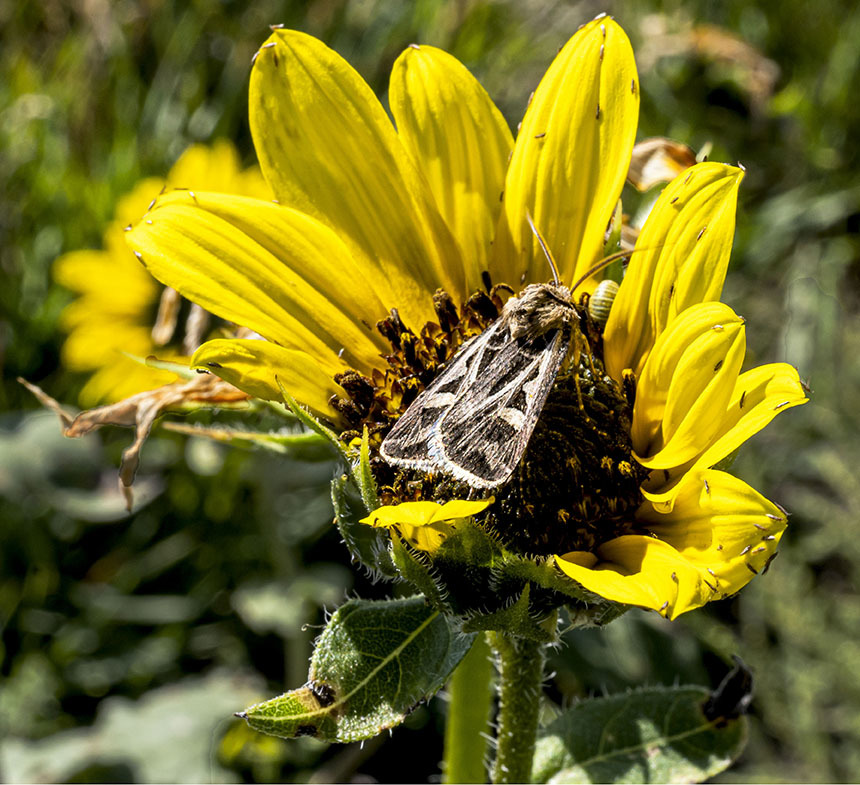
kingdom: Animalia
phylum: Arthropoda
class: Insecta
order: Lepidoptera
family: Noctuidae
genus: Feltia
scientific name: Feltia jaculifera
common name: Dingy cutworm moth
